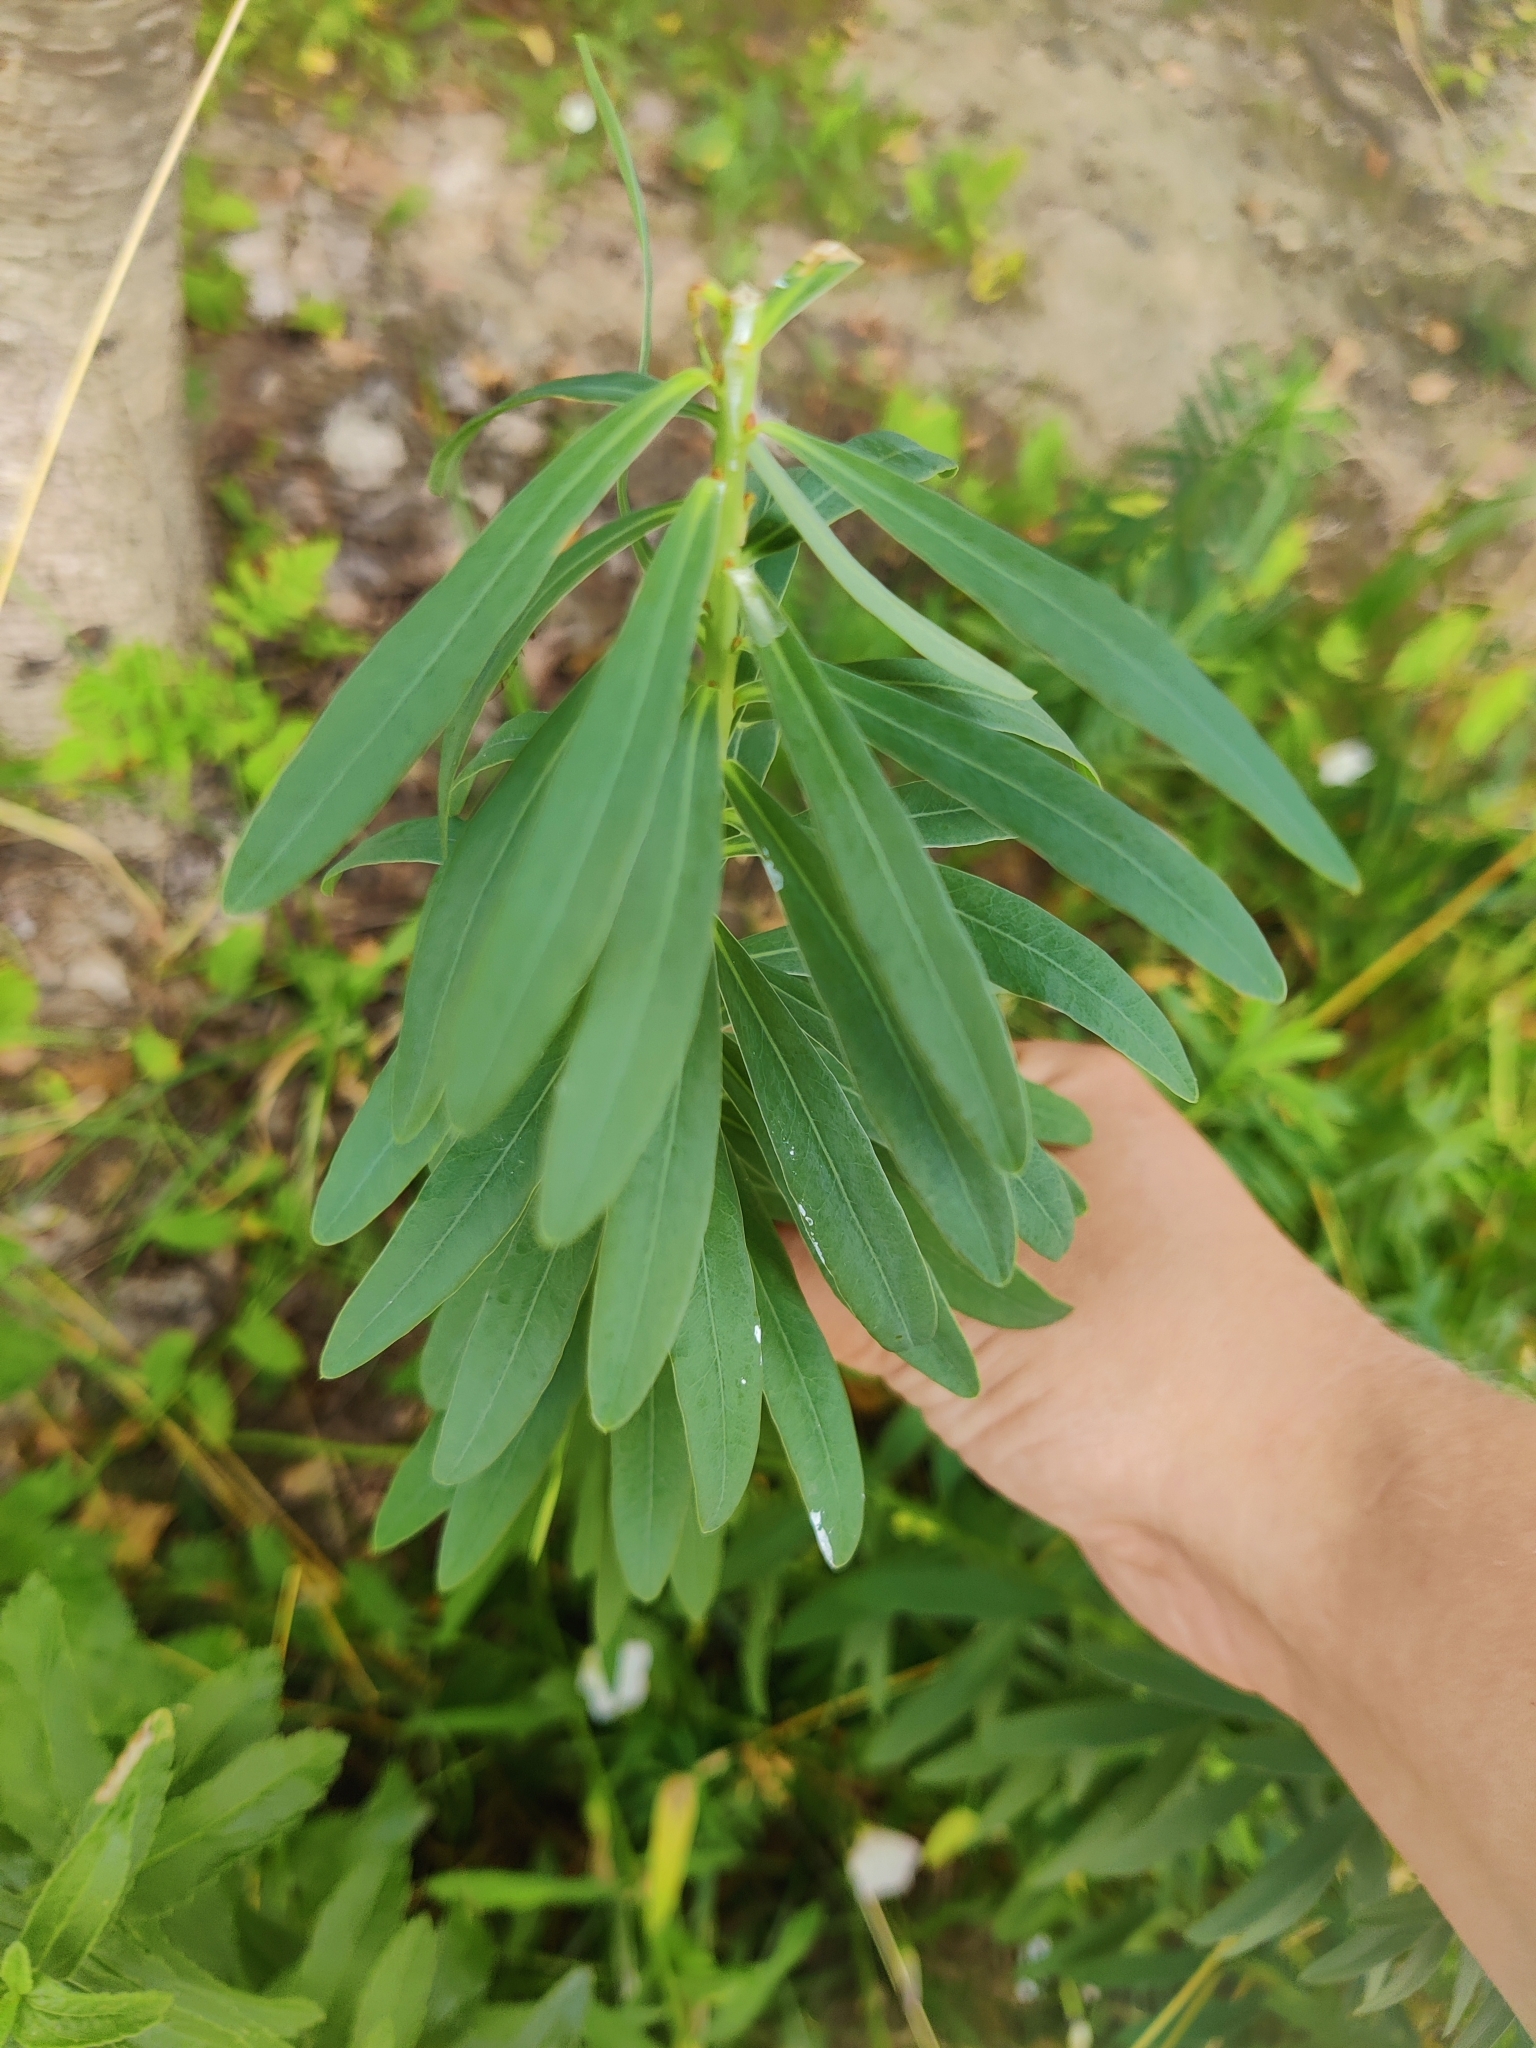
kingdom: Plantae
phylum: Tracheophyta
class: Magnoliopsida
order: Malpighiales
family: Euphorbiaceae
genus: Euphorbia
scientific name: Euphorbia virgata
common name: Leafy spurge
